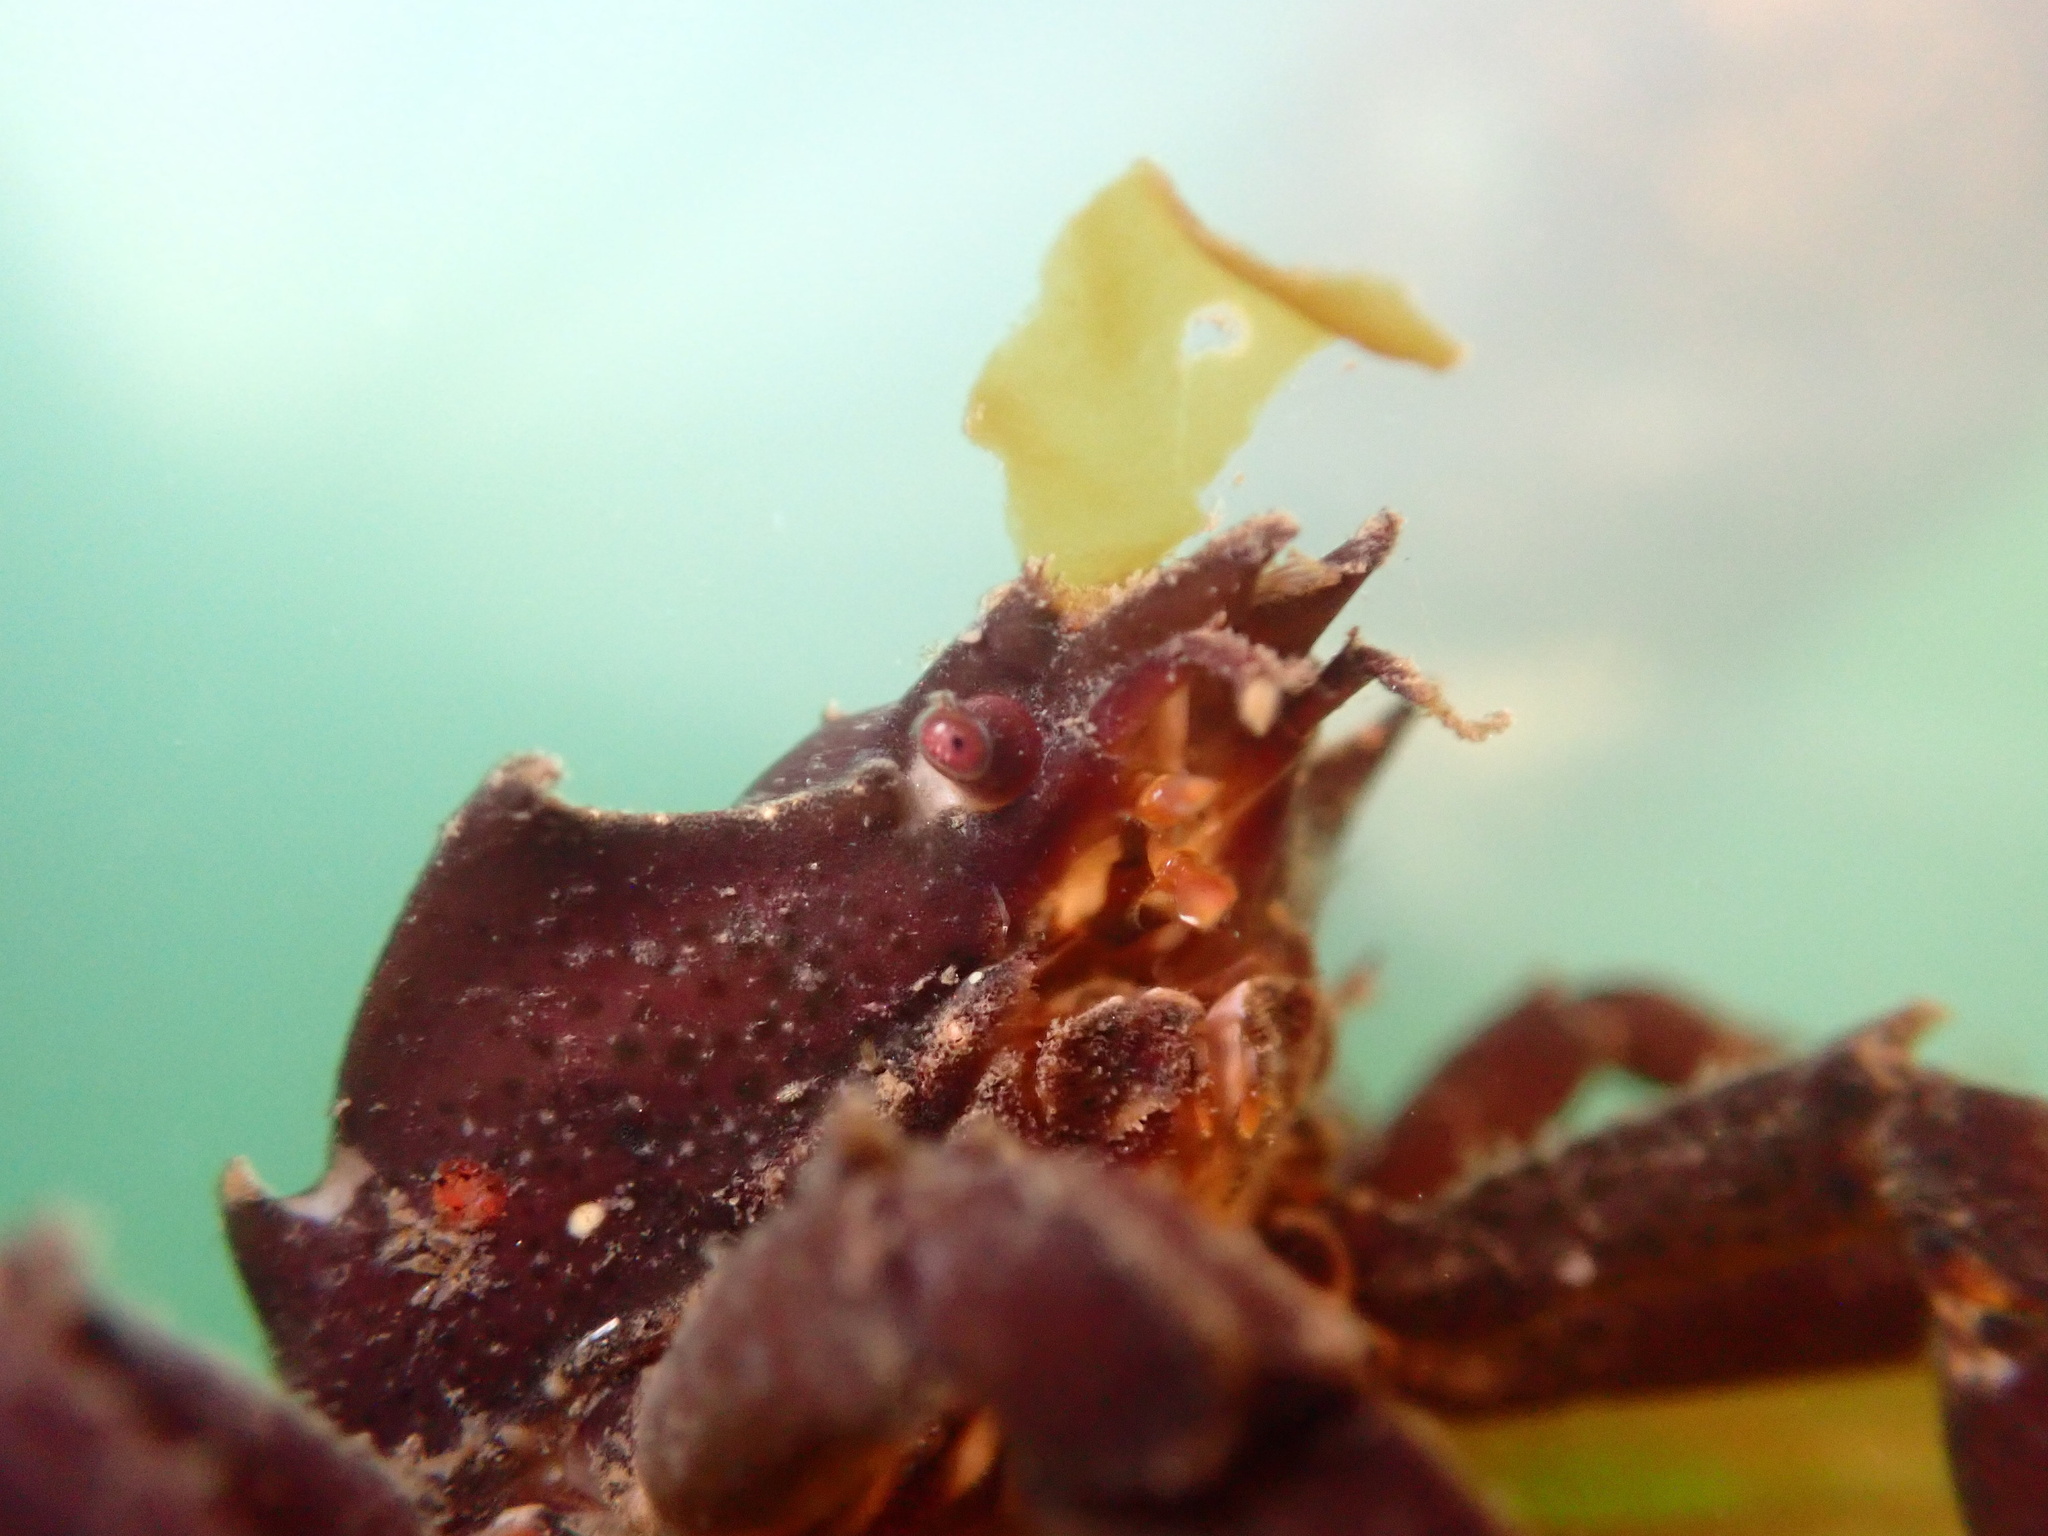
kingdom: Animalia
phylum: Arthropoda
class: Malacostraca
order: Decapoda
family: Epialtidae
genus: Pugettia
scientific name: Pugettia producta
